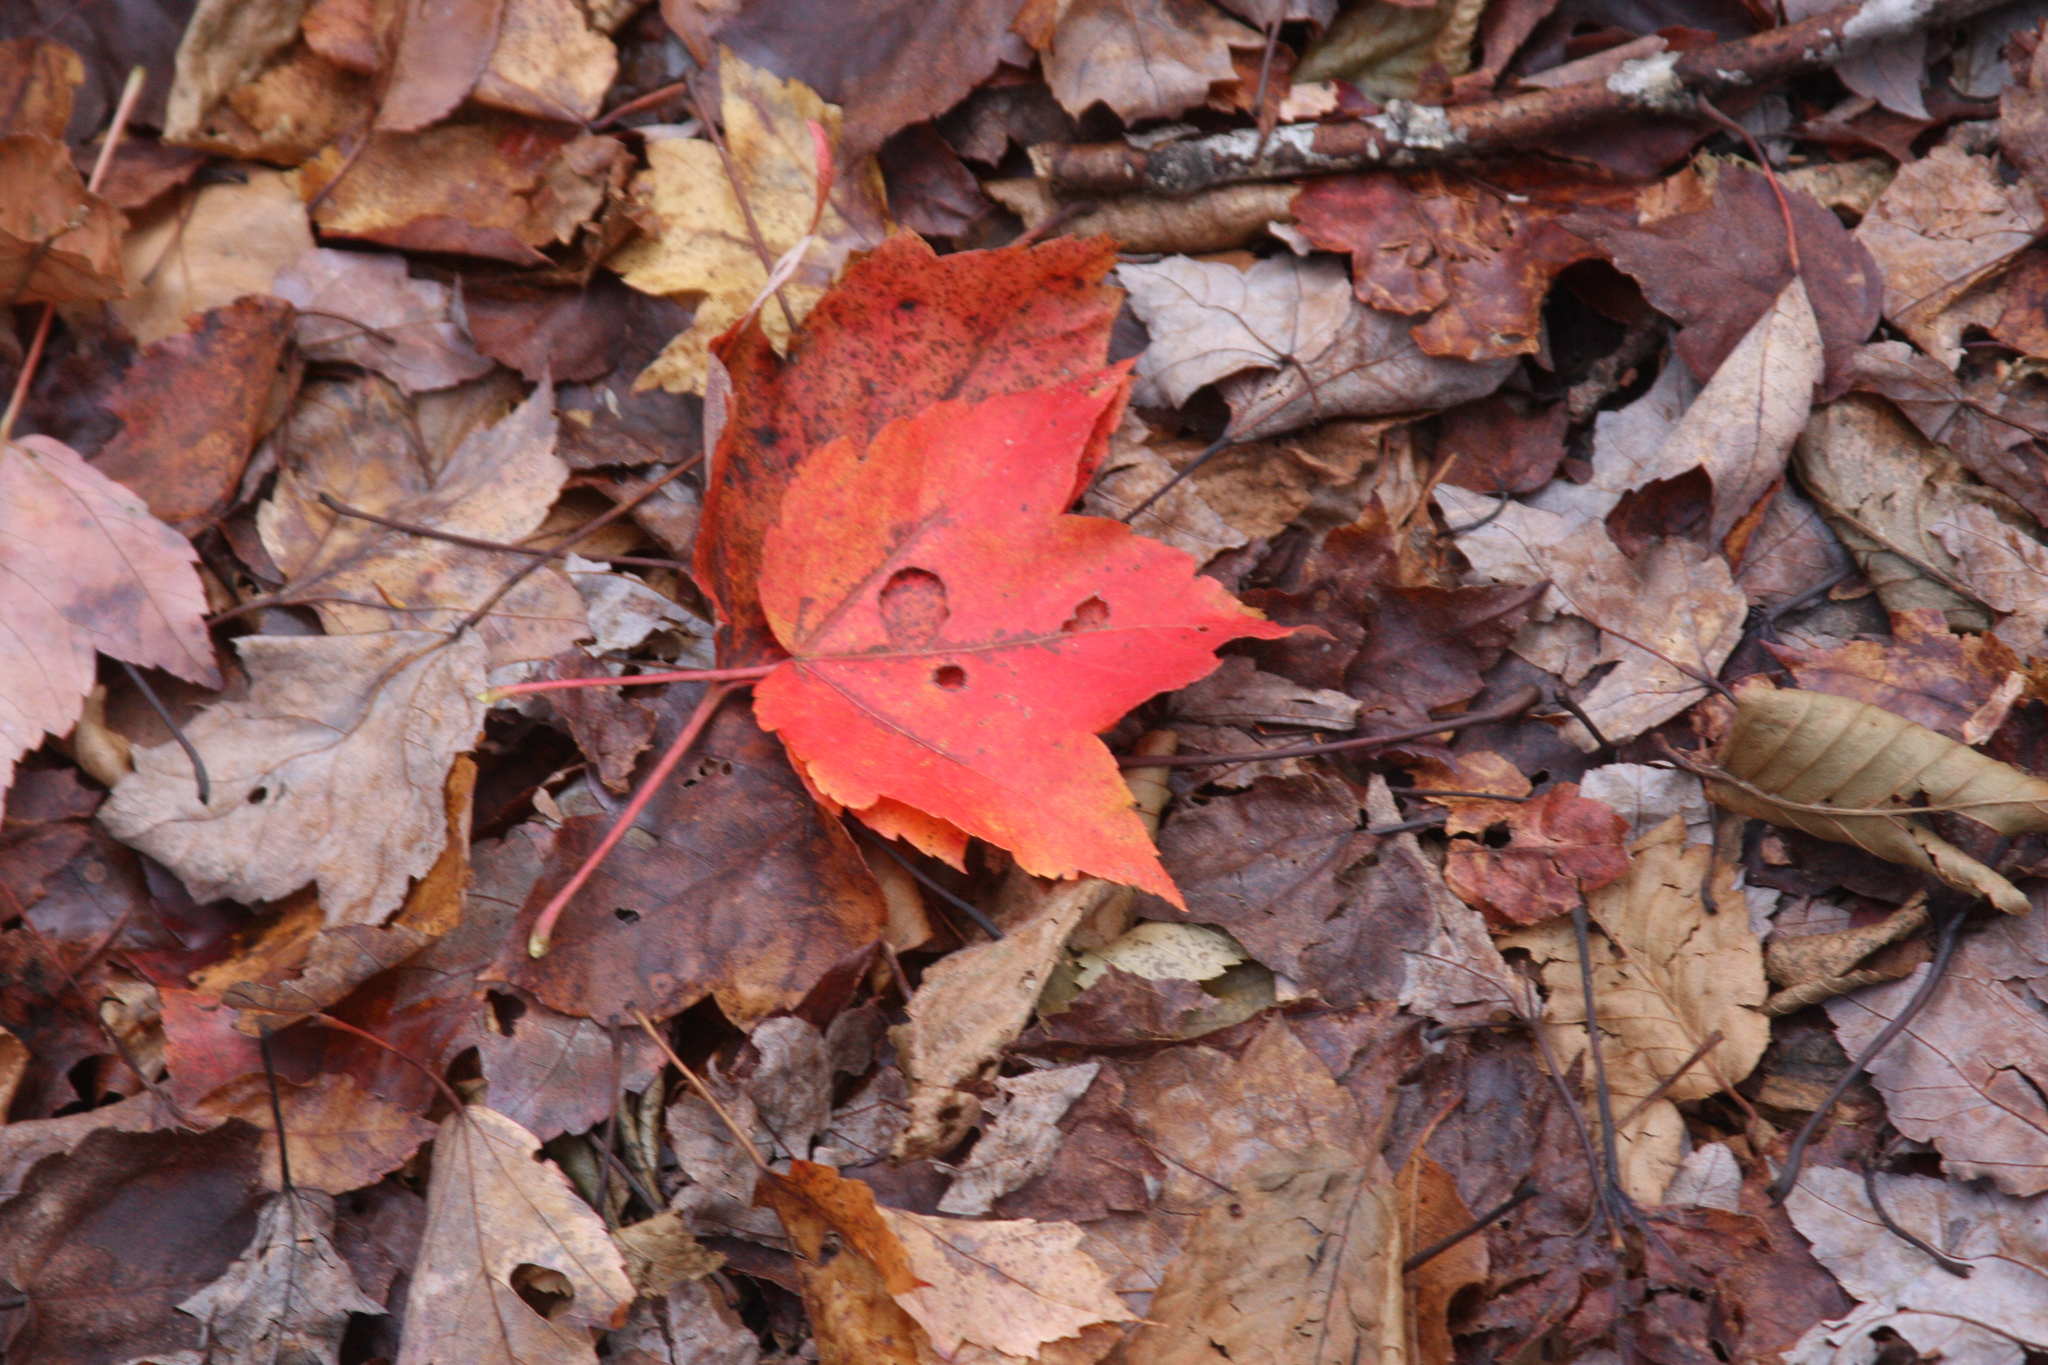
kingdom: Plantae
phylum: Tracheophyta
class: Magnoliopsida
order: Sapindales
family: Sapindaceae
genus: Acer
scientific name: Acer rubrum
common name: Red maple
